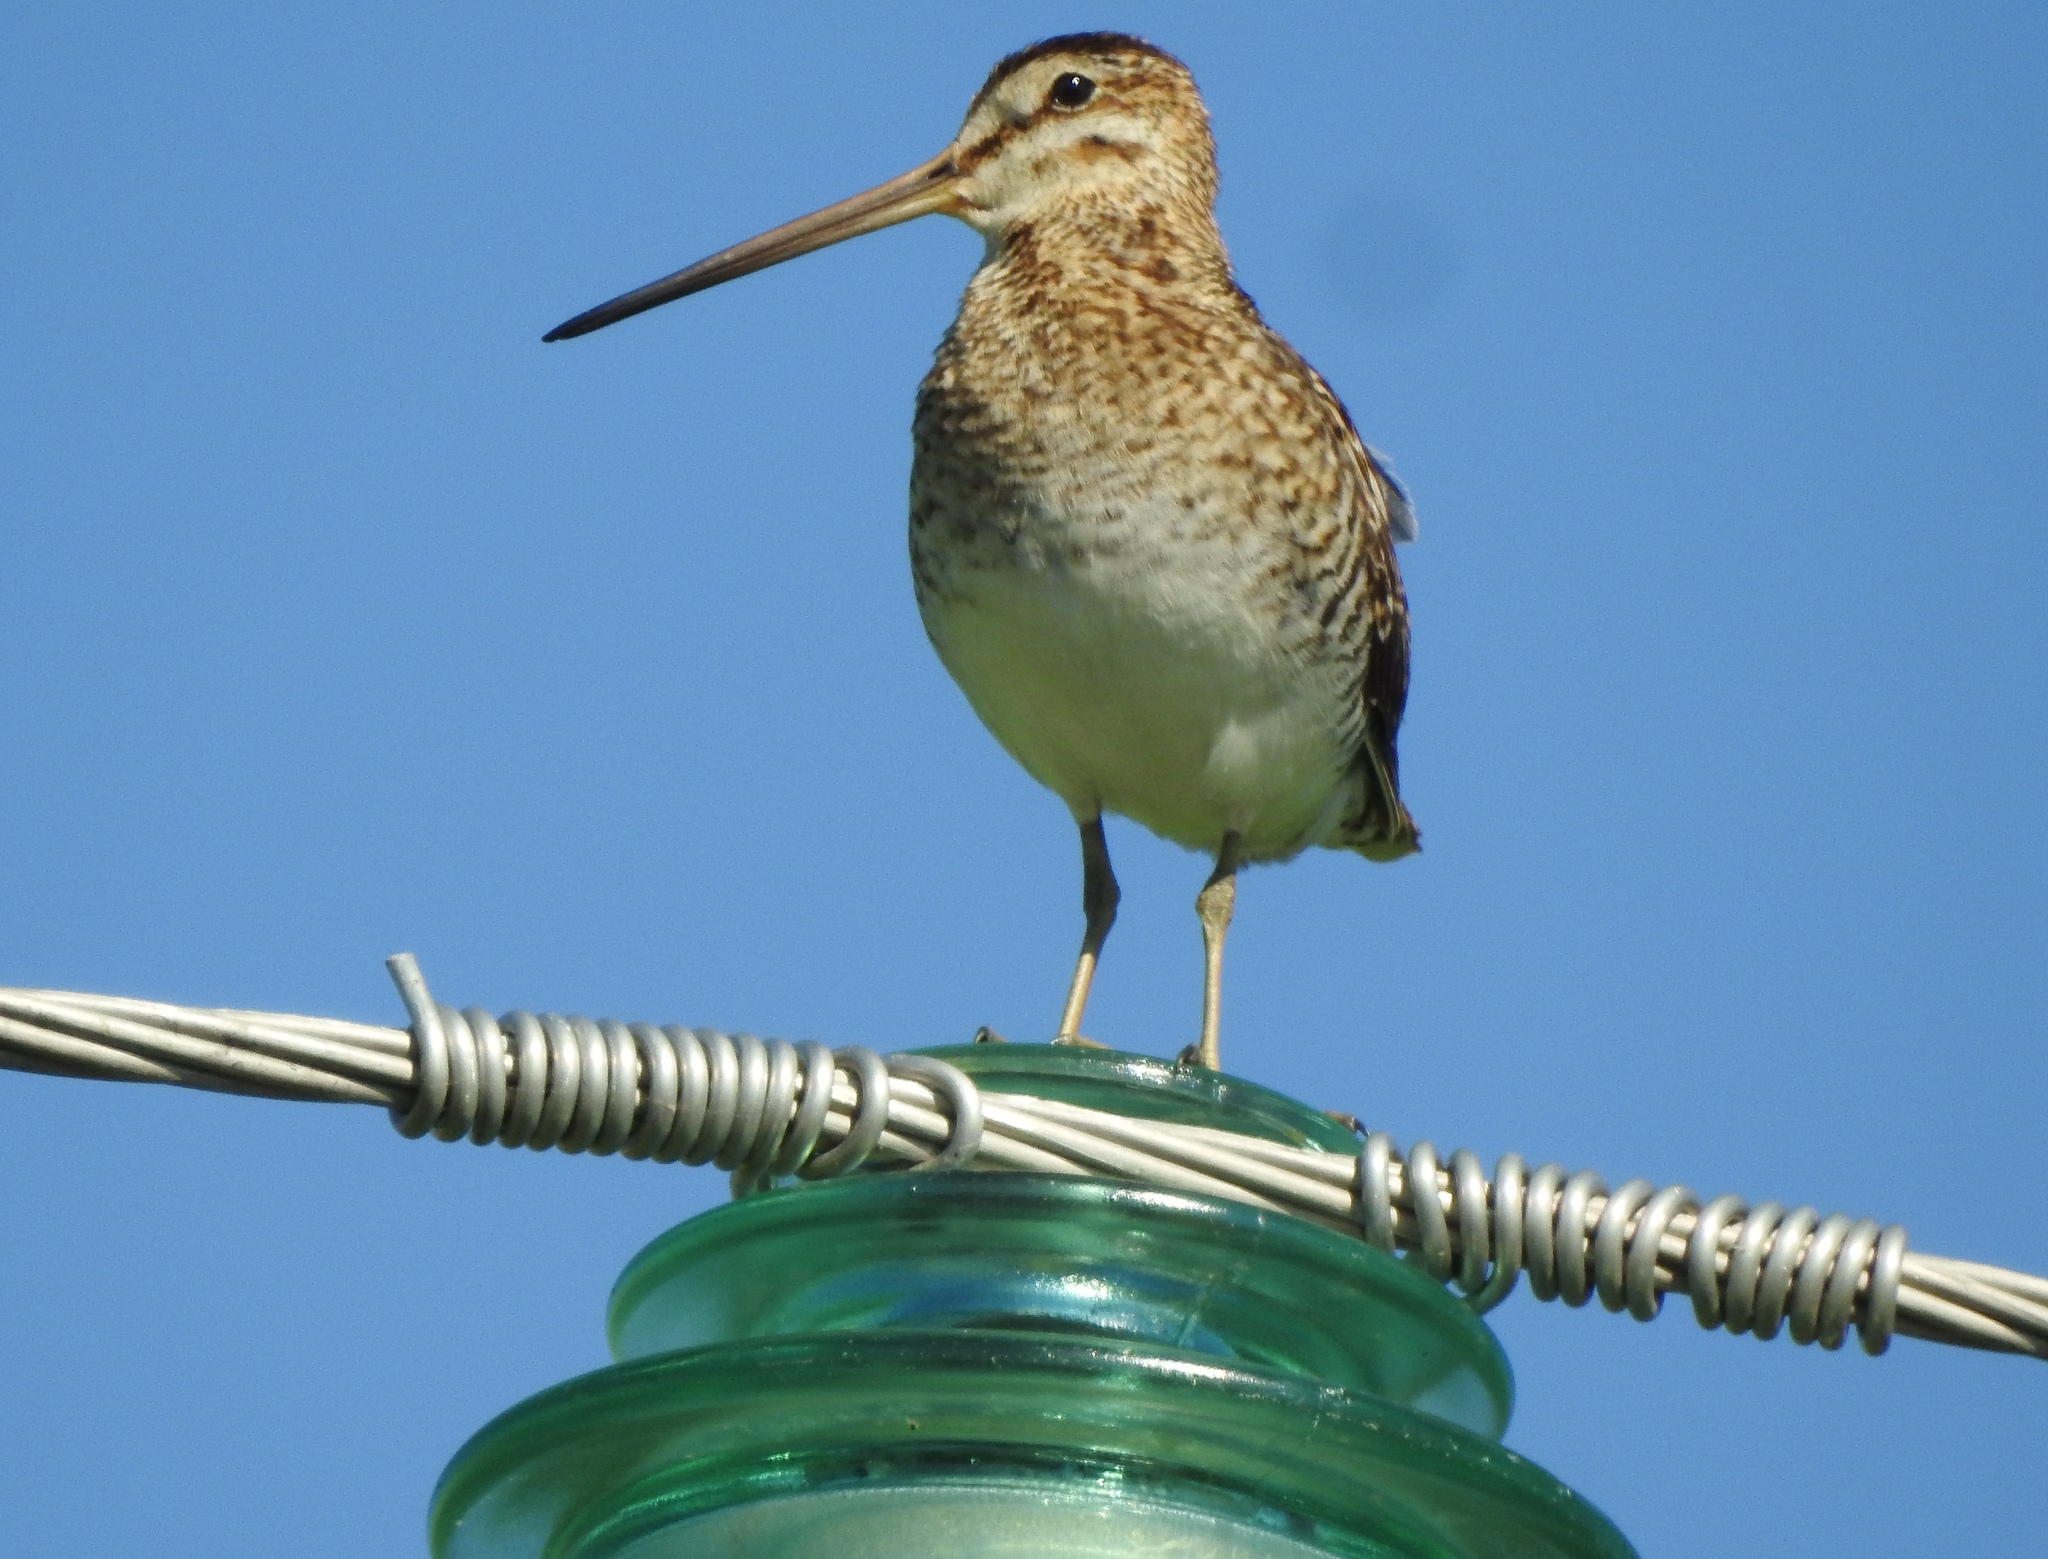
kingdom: Animalia
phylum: Chordata
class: Aves
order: Charadriiformes
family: Scolopacidae
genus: Gallinago
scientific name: Gallinago gallinago
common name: Common snipe
